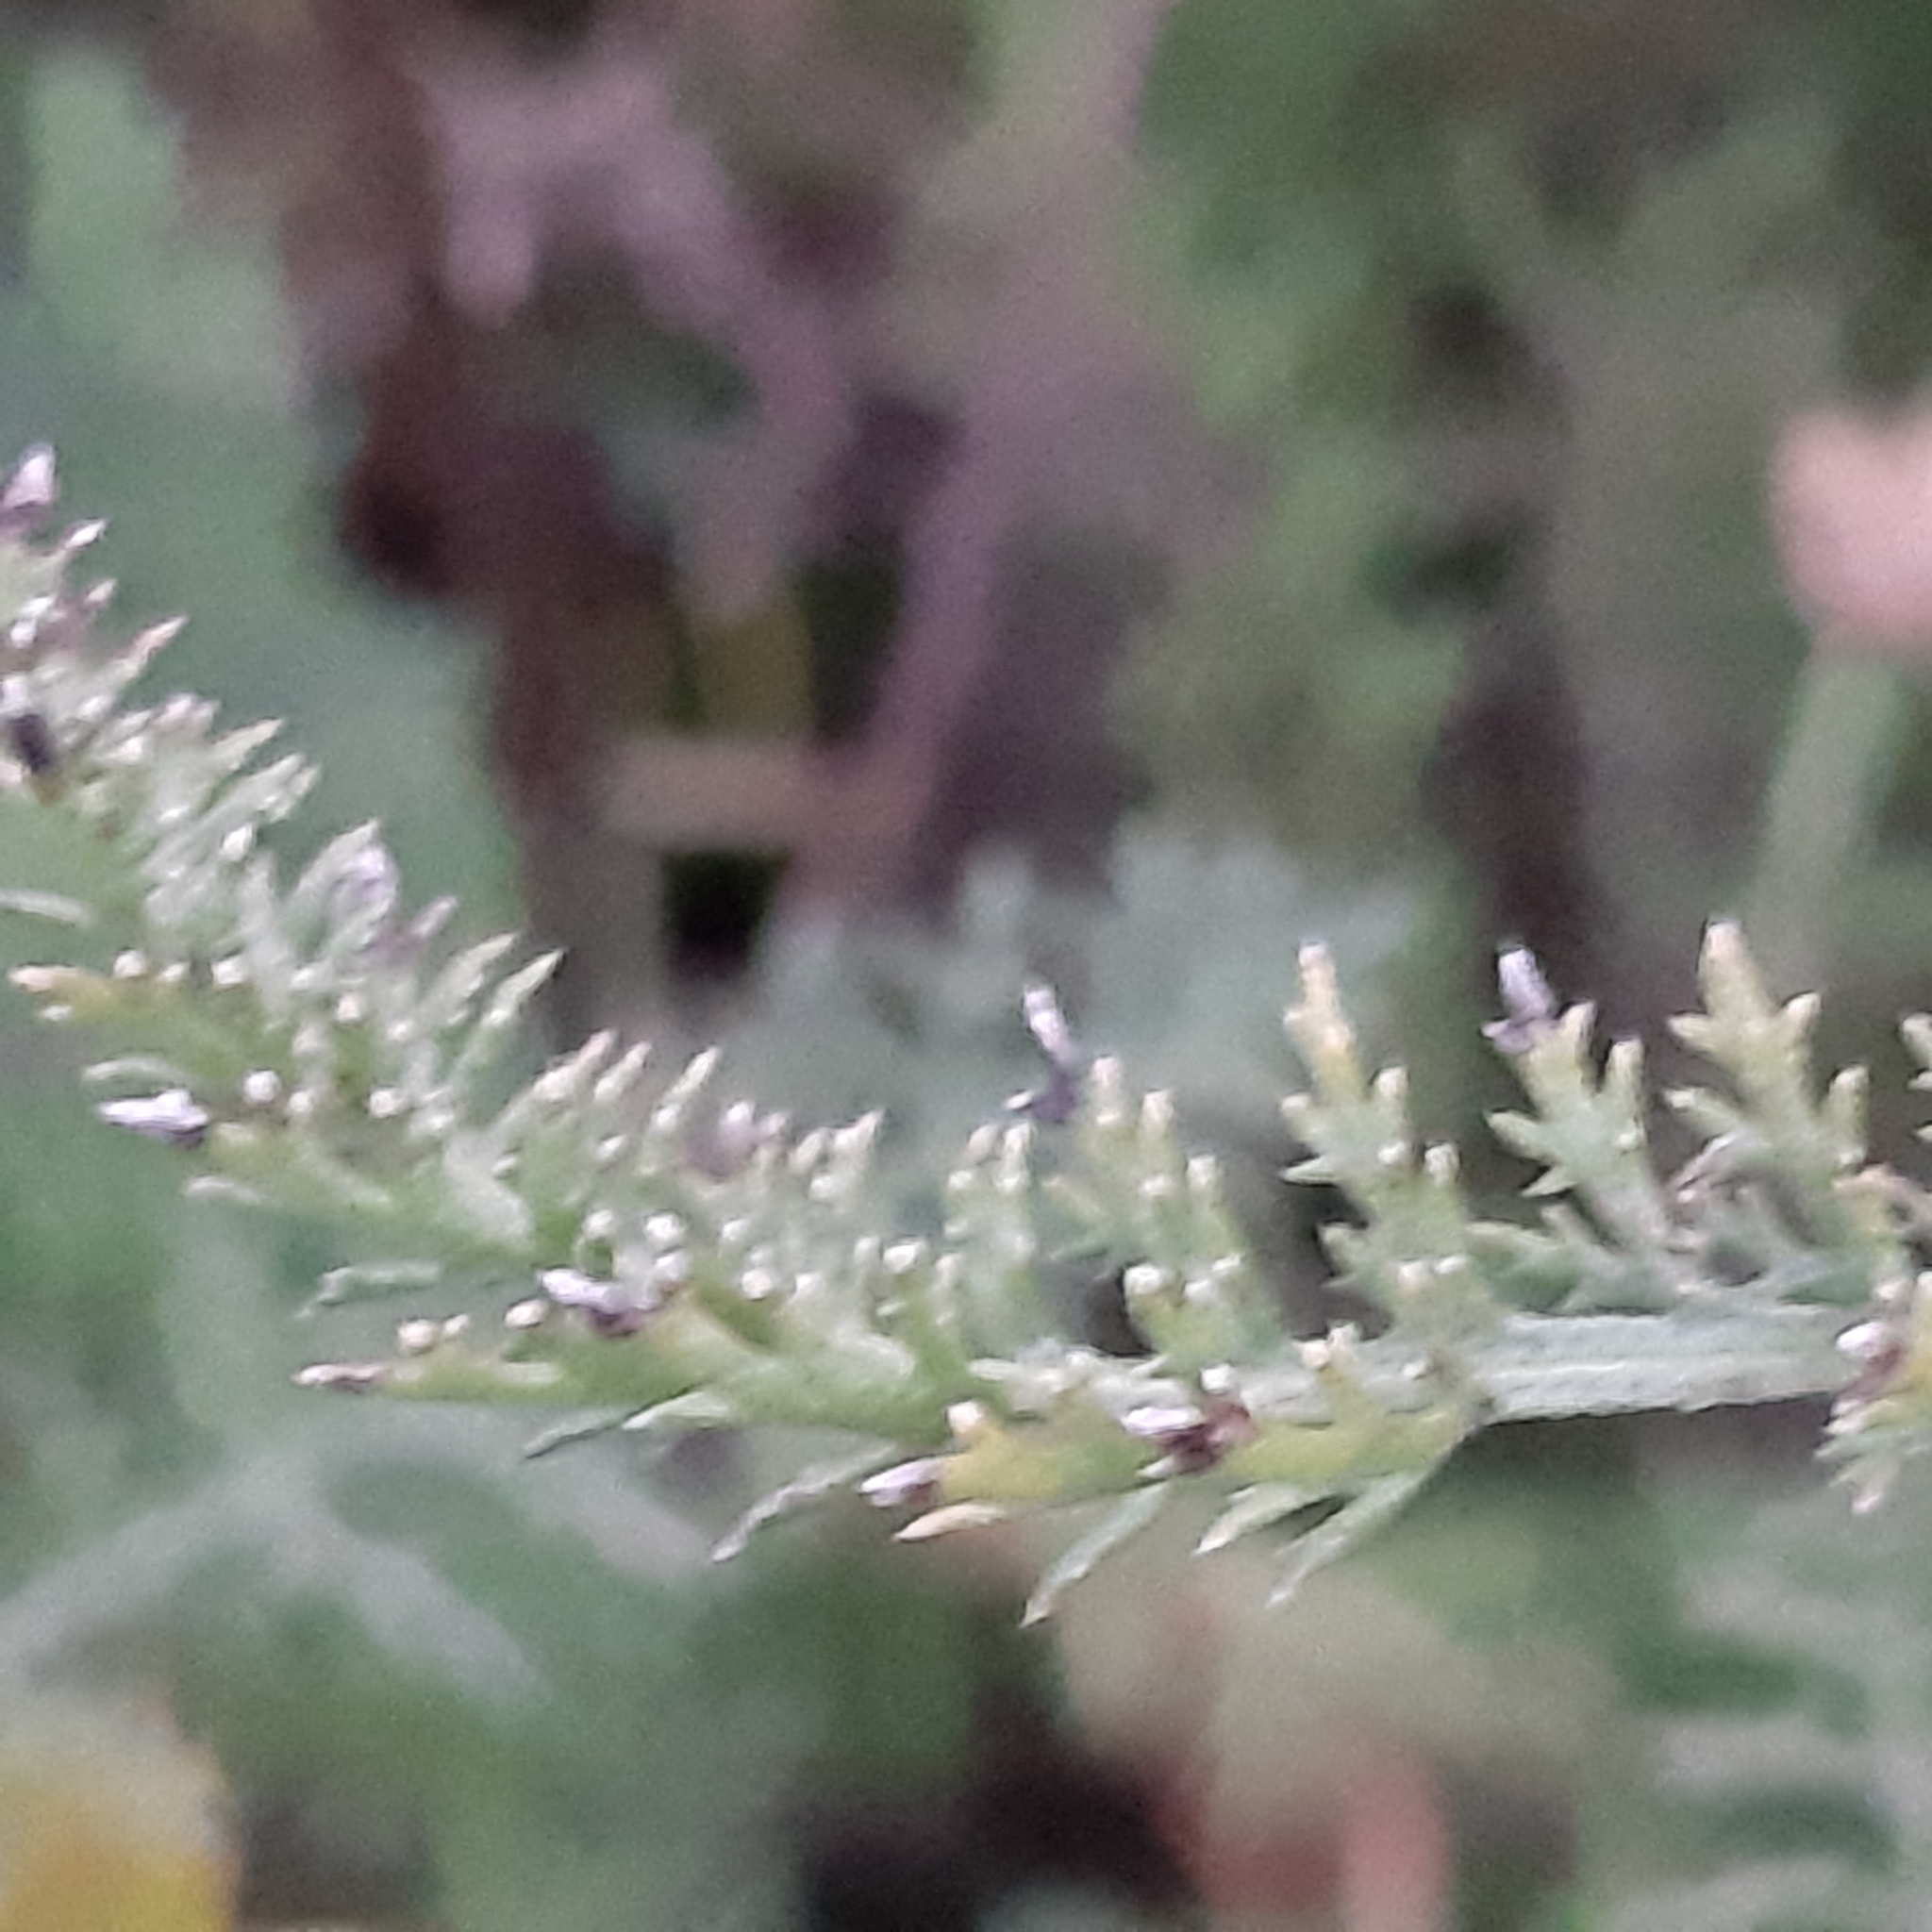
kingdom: Plantae
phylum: Tracheophyta
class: Magnoliopsida
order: Asterales
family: Asteraceae
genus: Achillea
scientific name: Achillea millefolium
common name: Yarrow
